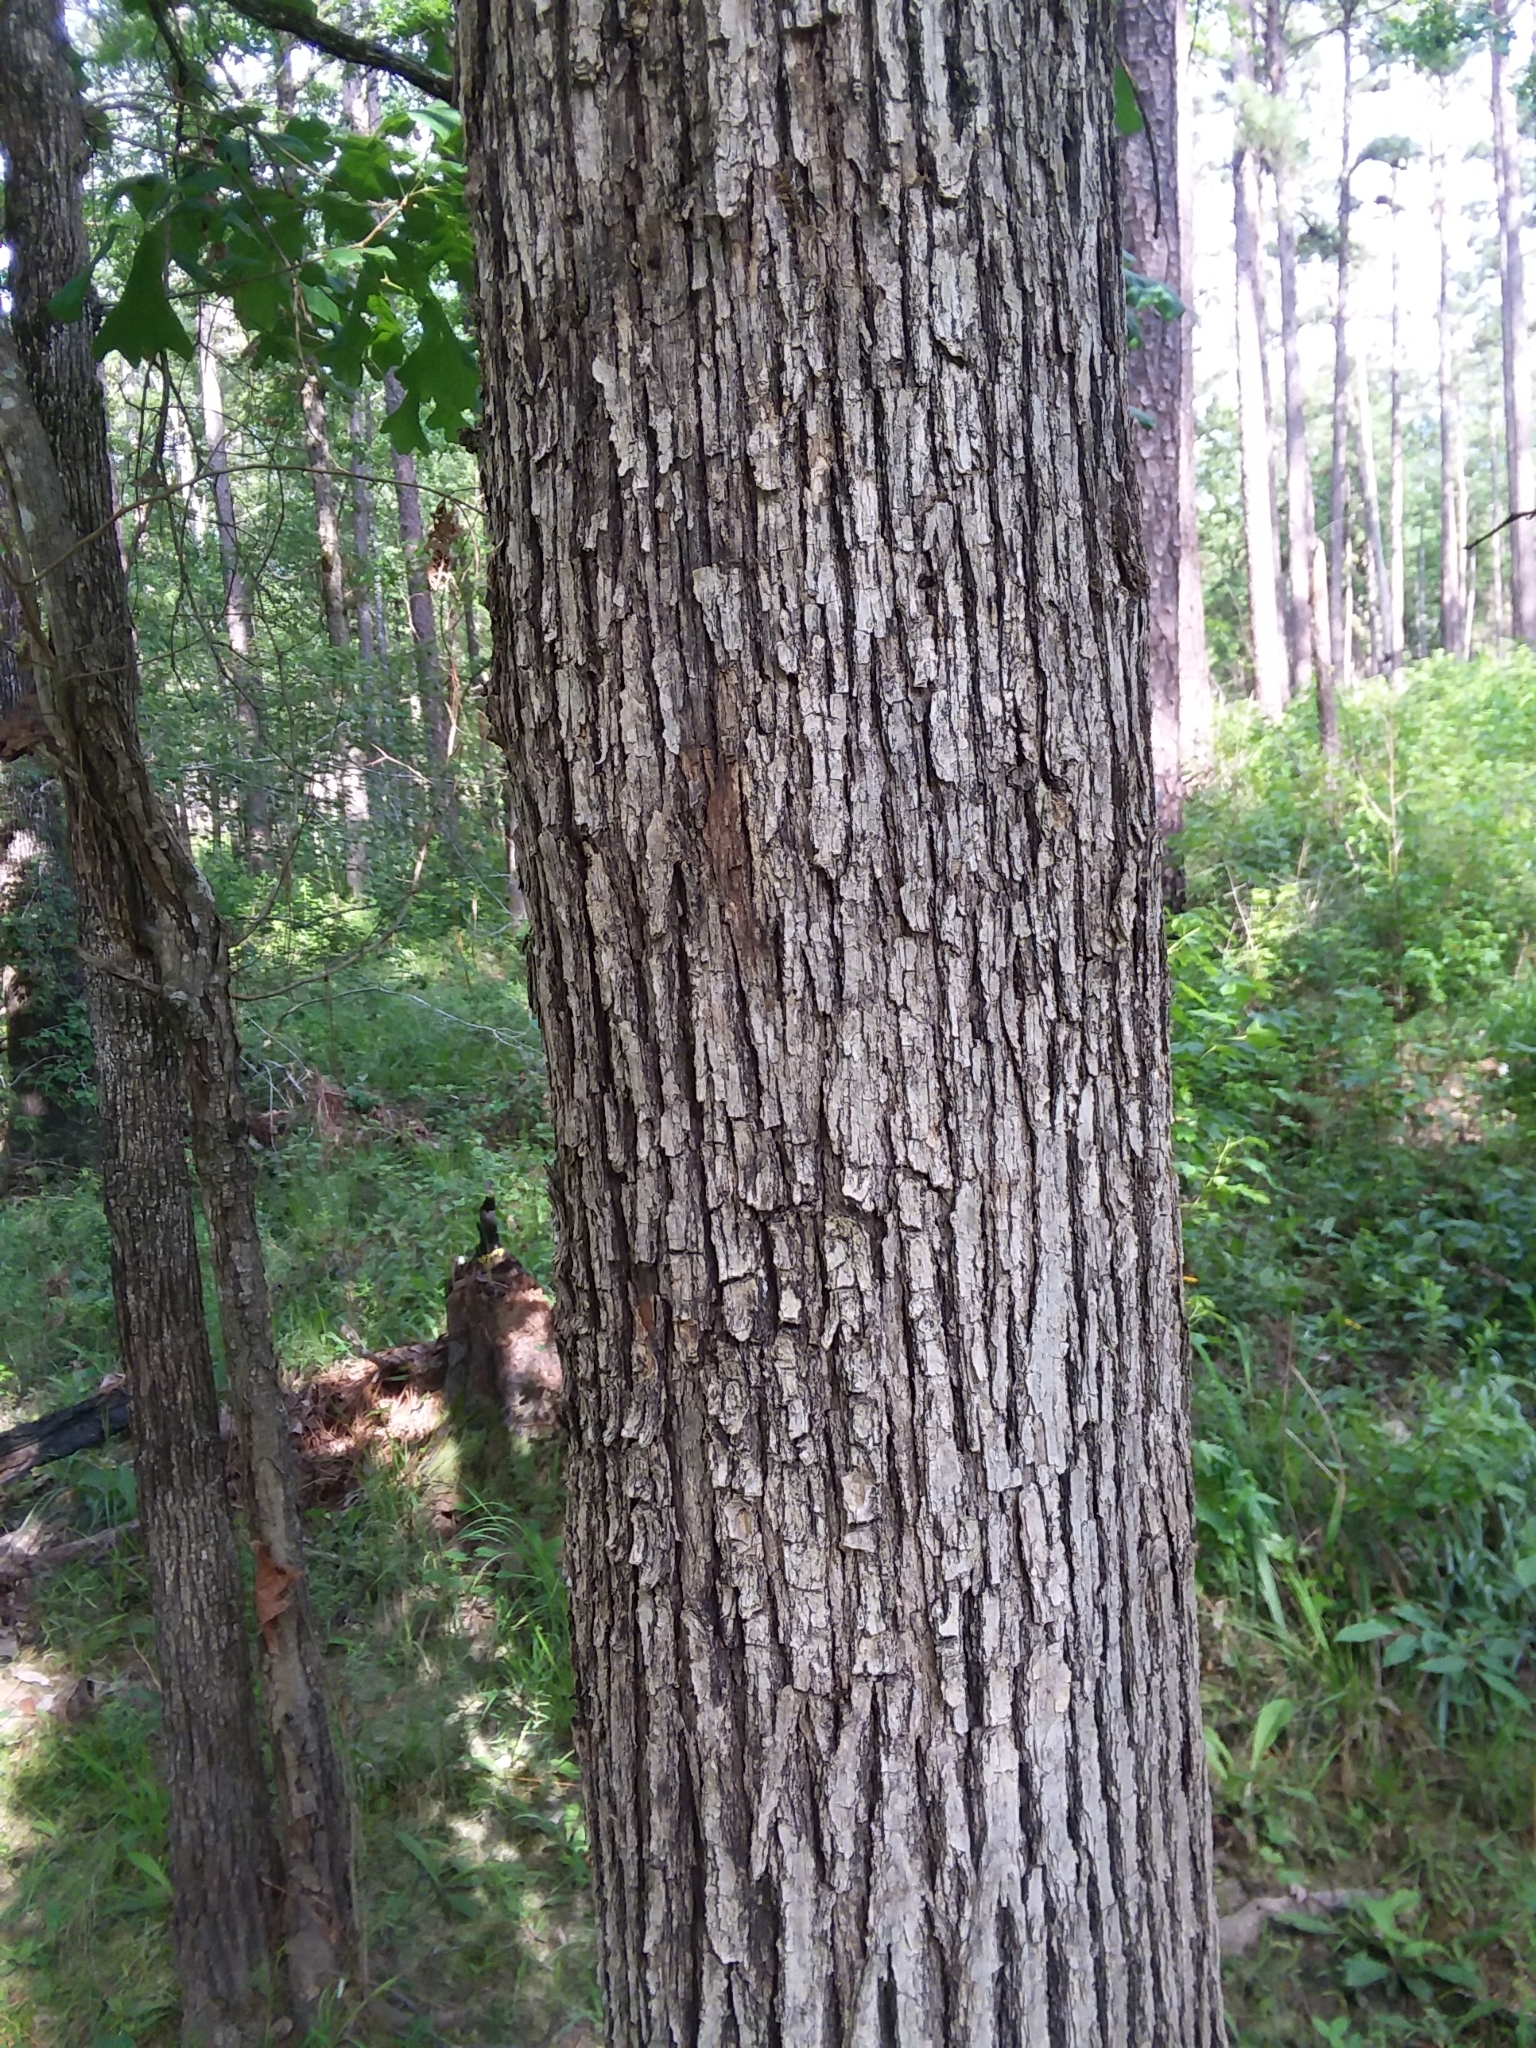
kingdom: Plantae
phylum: Tracheophyta
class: Magnoliopsida
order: Fagales
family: Fagaceae
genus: Quercus
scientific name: Quercus stellata
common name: Post oak
